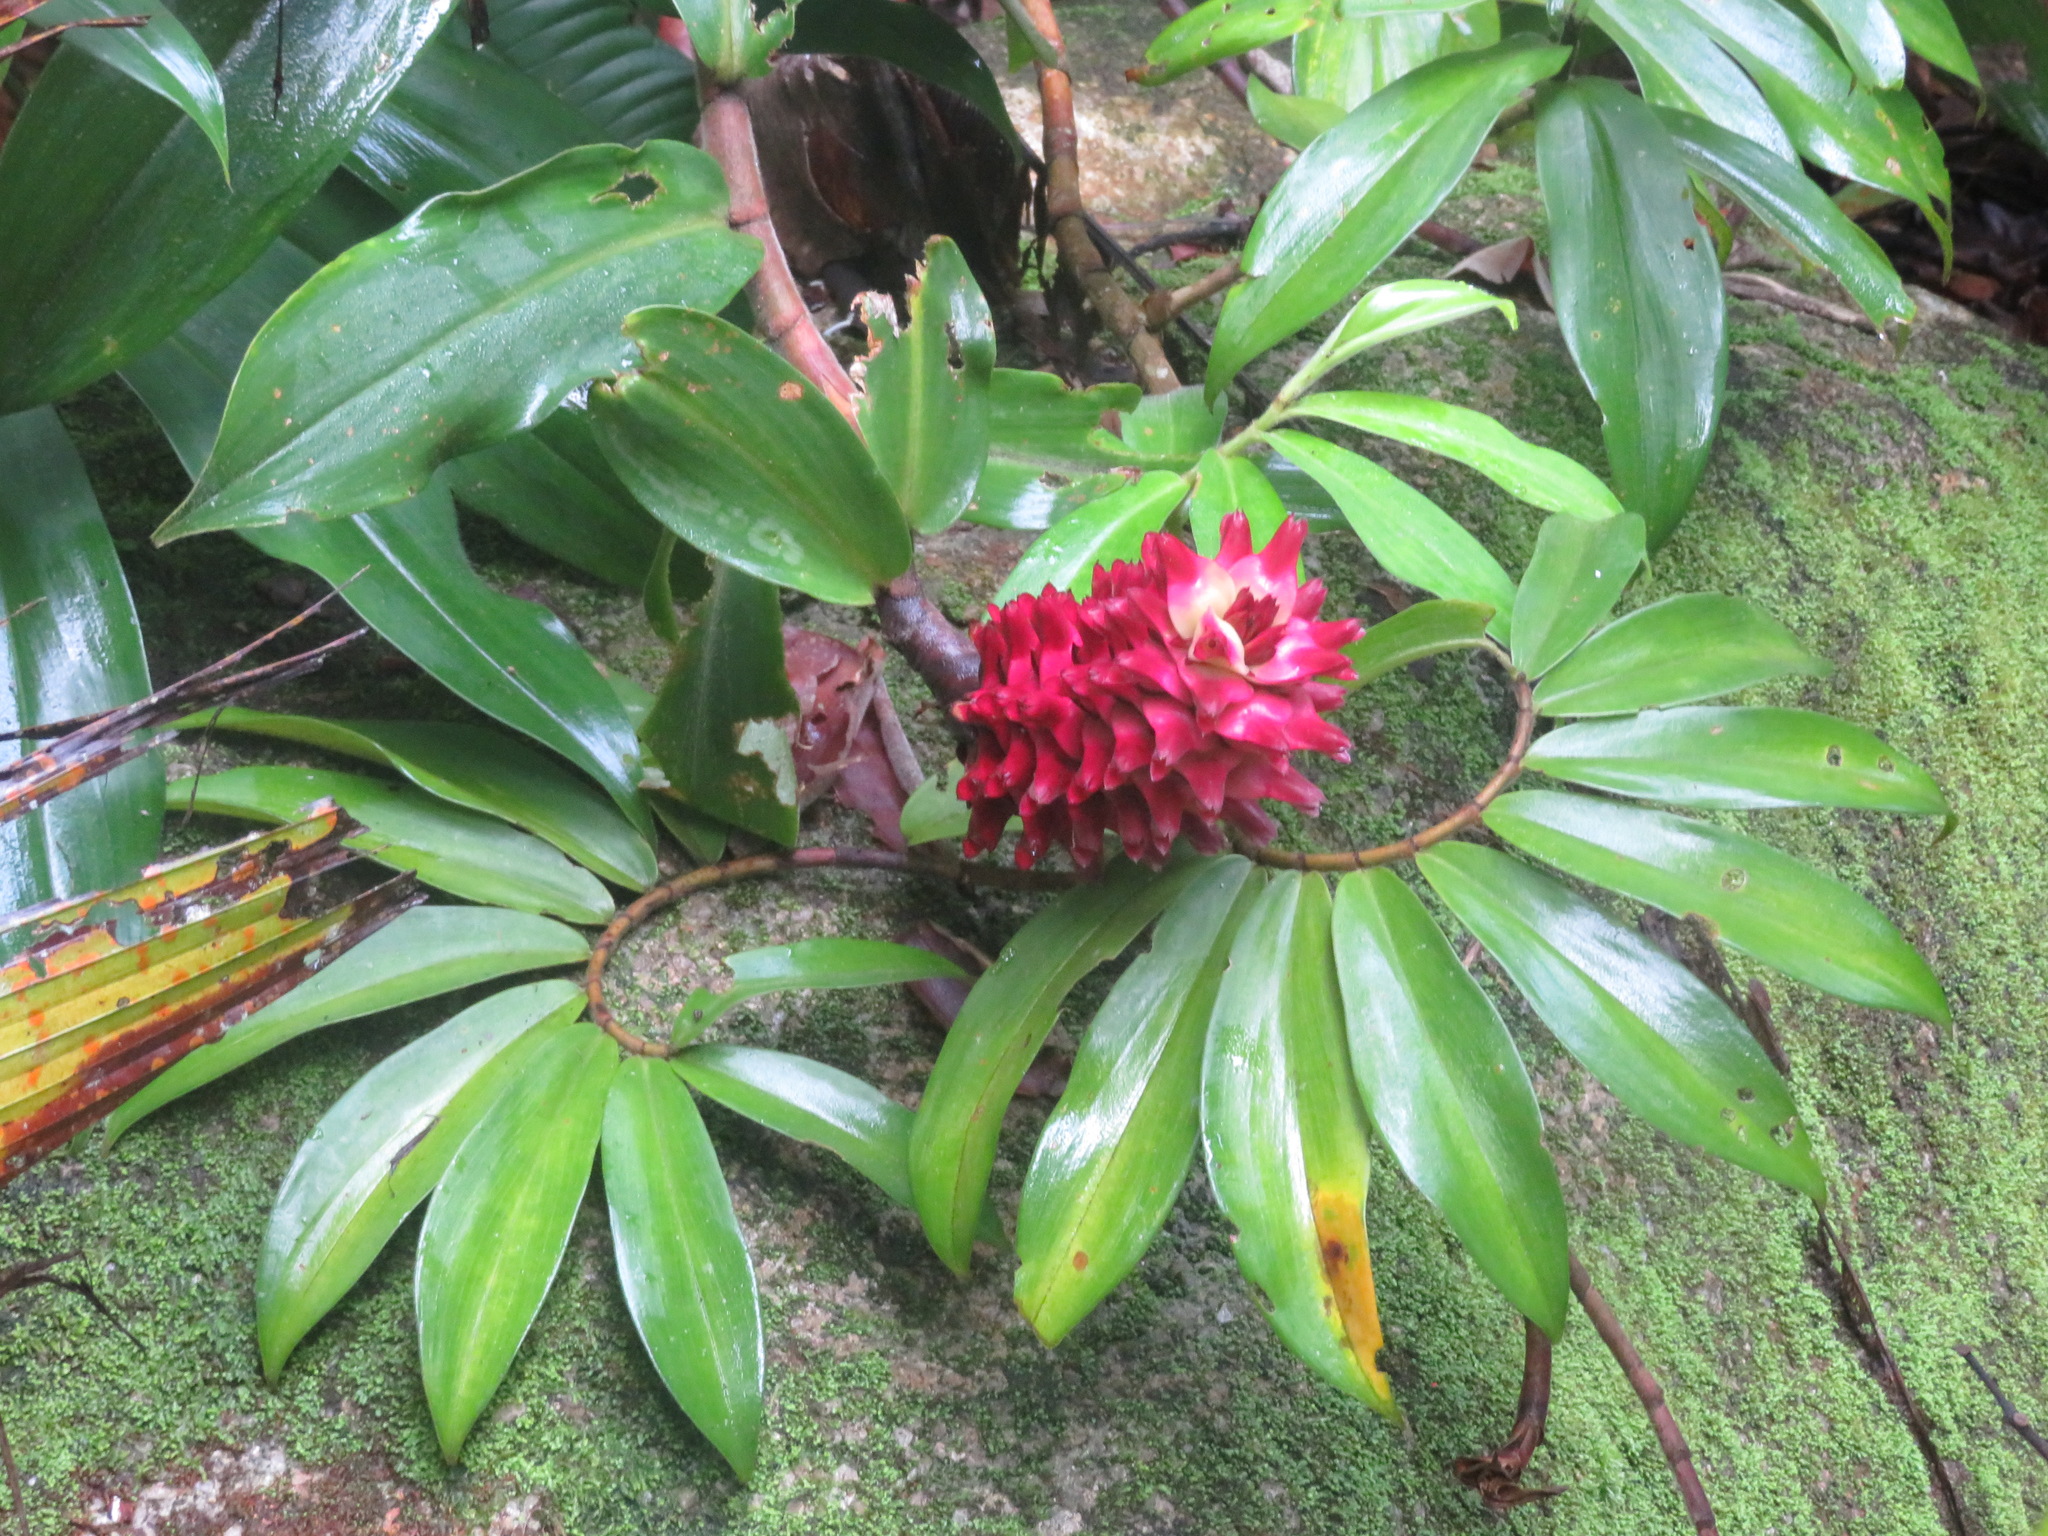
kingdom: Plantae
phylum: Tracheophyta
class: Liliopsida
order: Zingiberales
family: Costaceae
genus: Hellenia
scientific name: Hellenia speciosa
